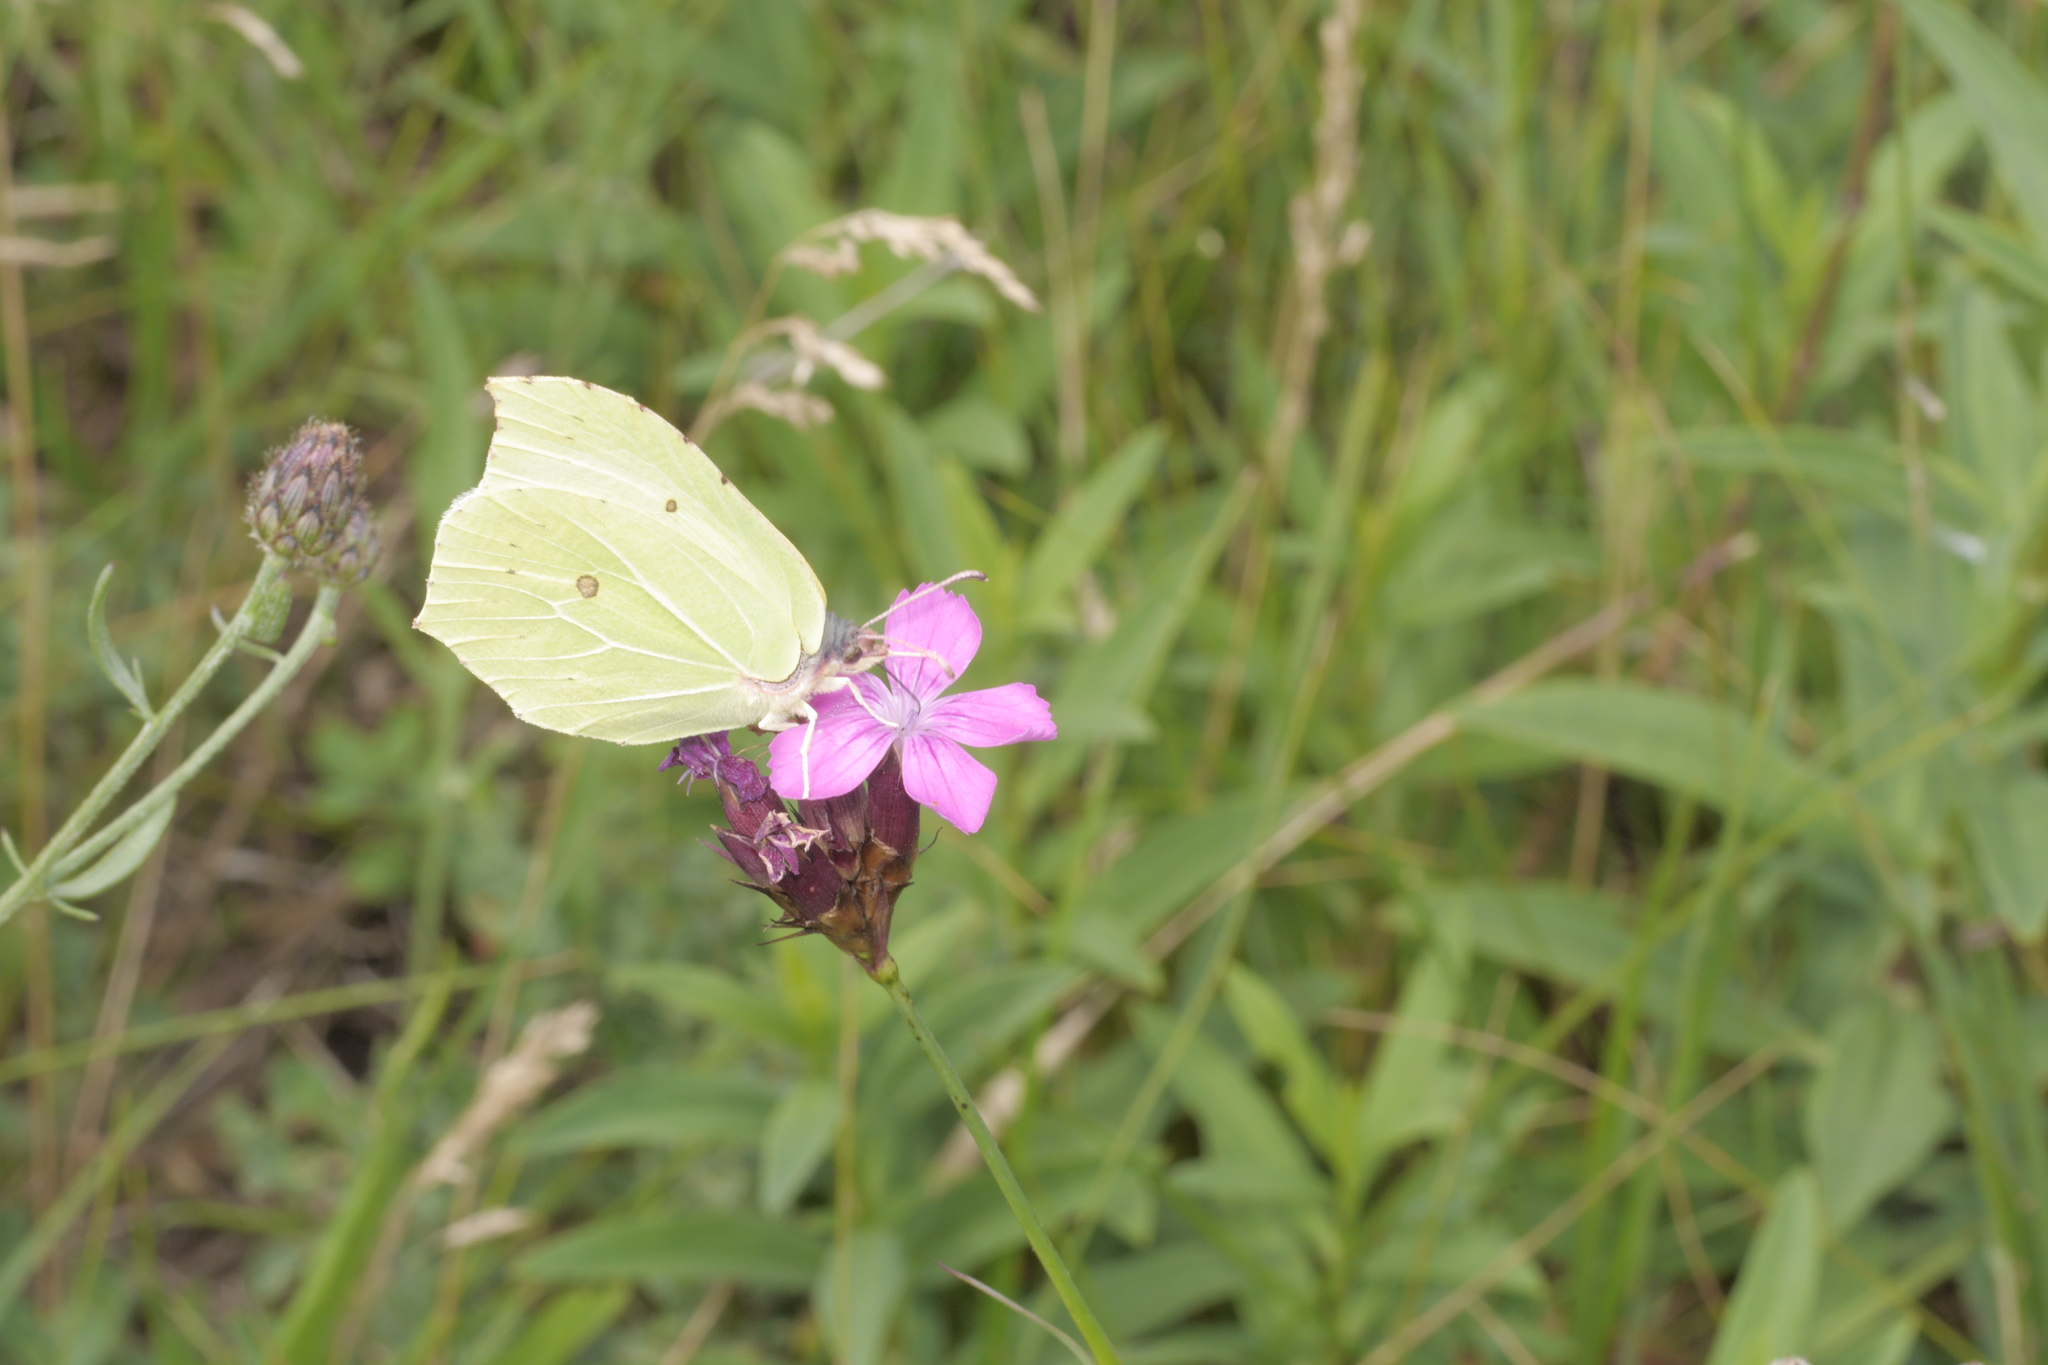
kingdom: Animalia
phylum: Arthropoda
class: Insecta
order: Lepidoptera
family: Pieridae
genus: Gonepteryx
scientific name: Gonepteryx rhamni
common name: Brimstone
